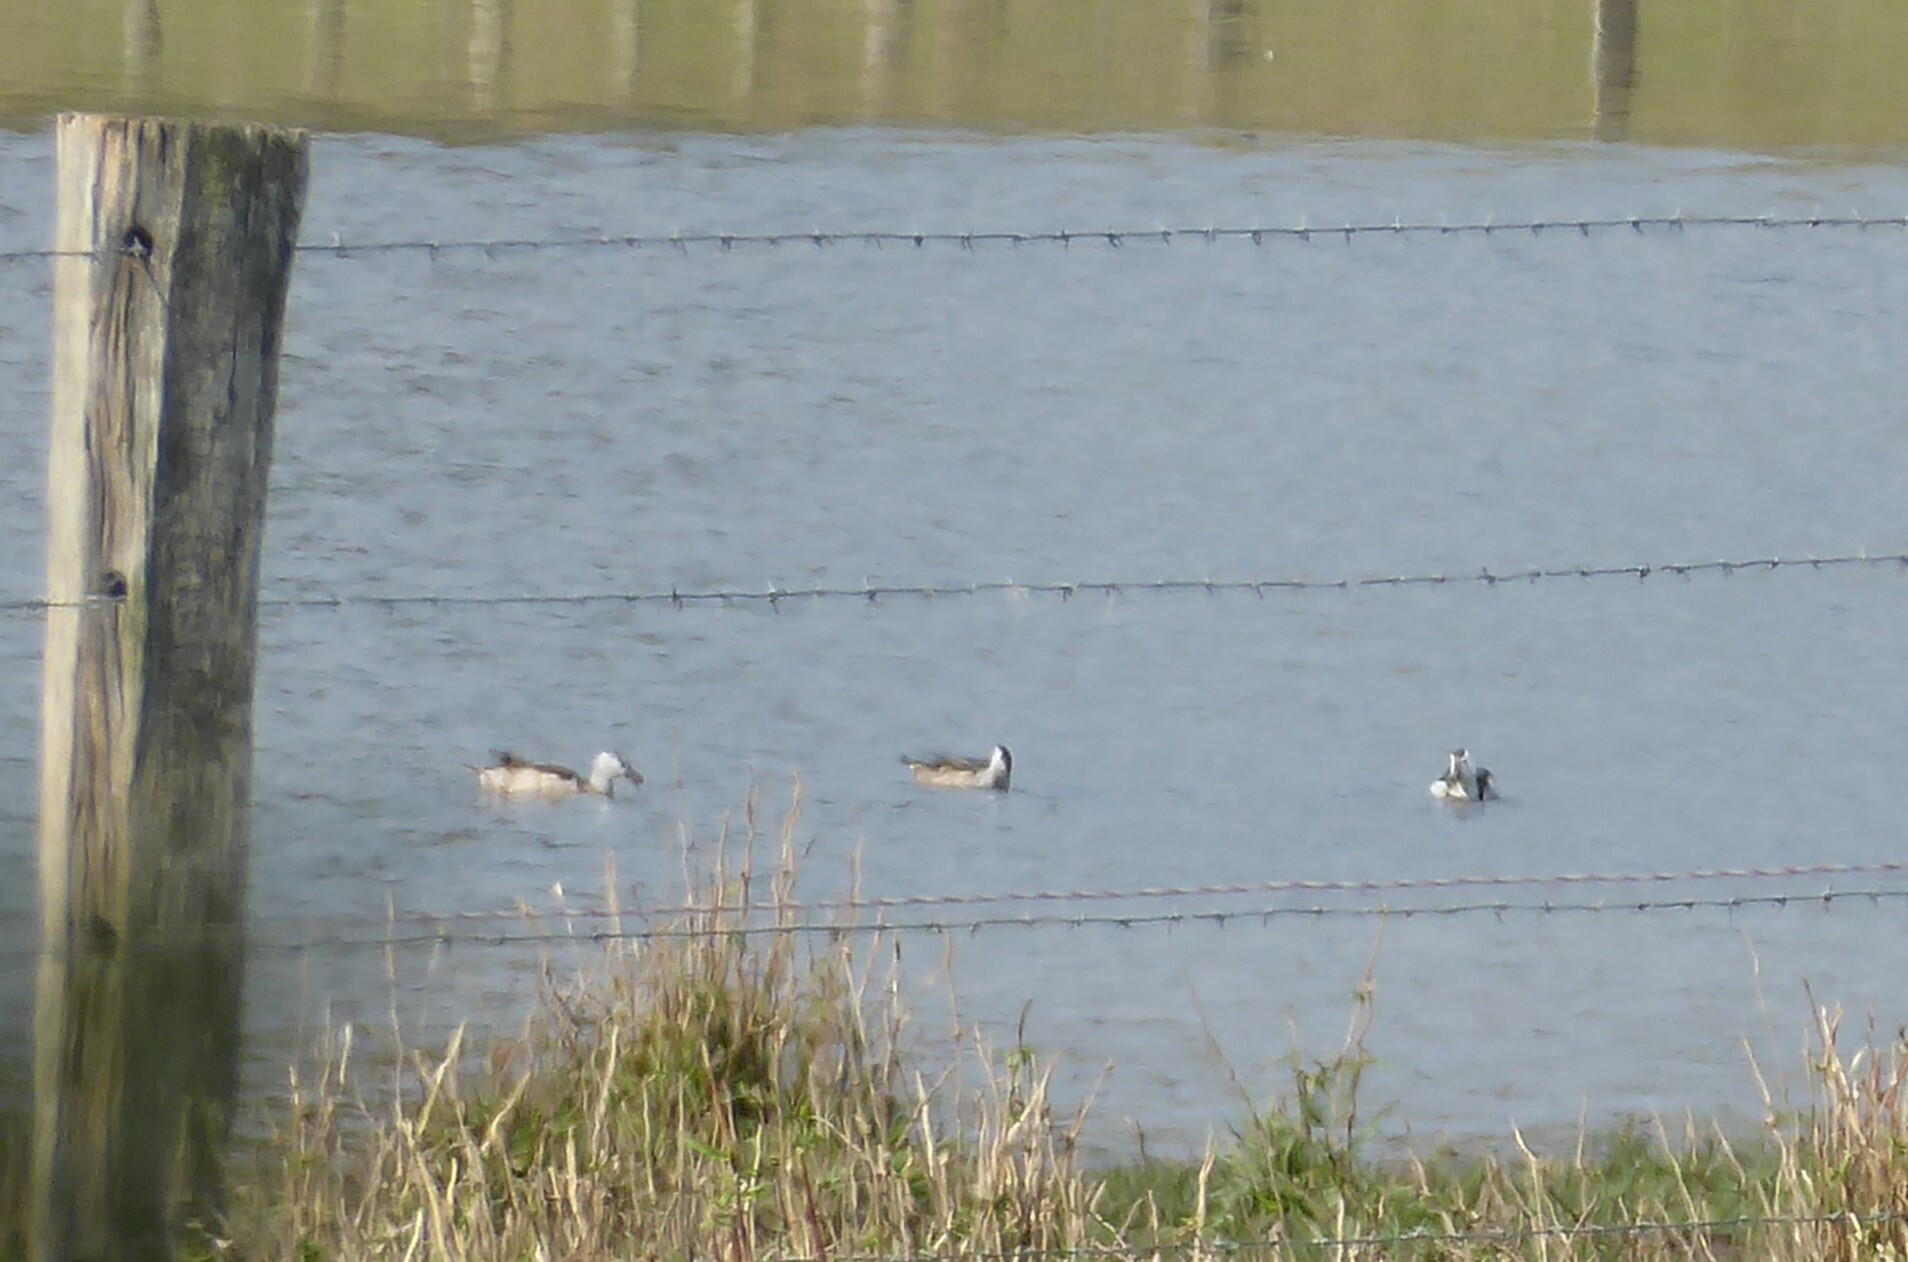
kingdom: Animalia
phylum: Chordata
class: Aves
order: Anseriformes
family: Anatidae
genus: Nettapus
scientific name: Nettapus coromandelianus
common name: Cotton pygmy-goose
